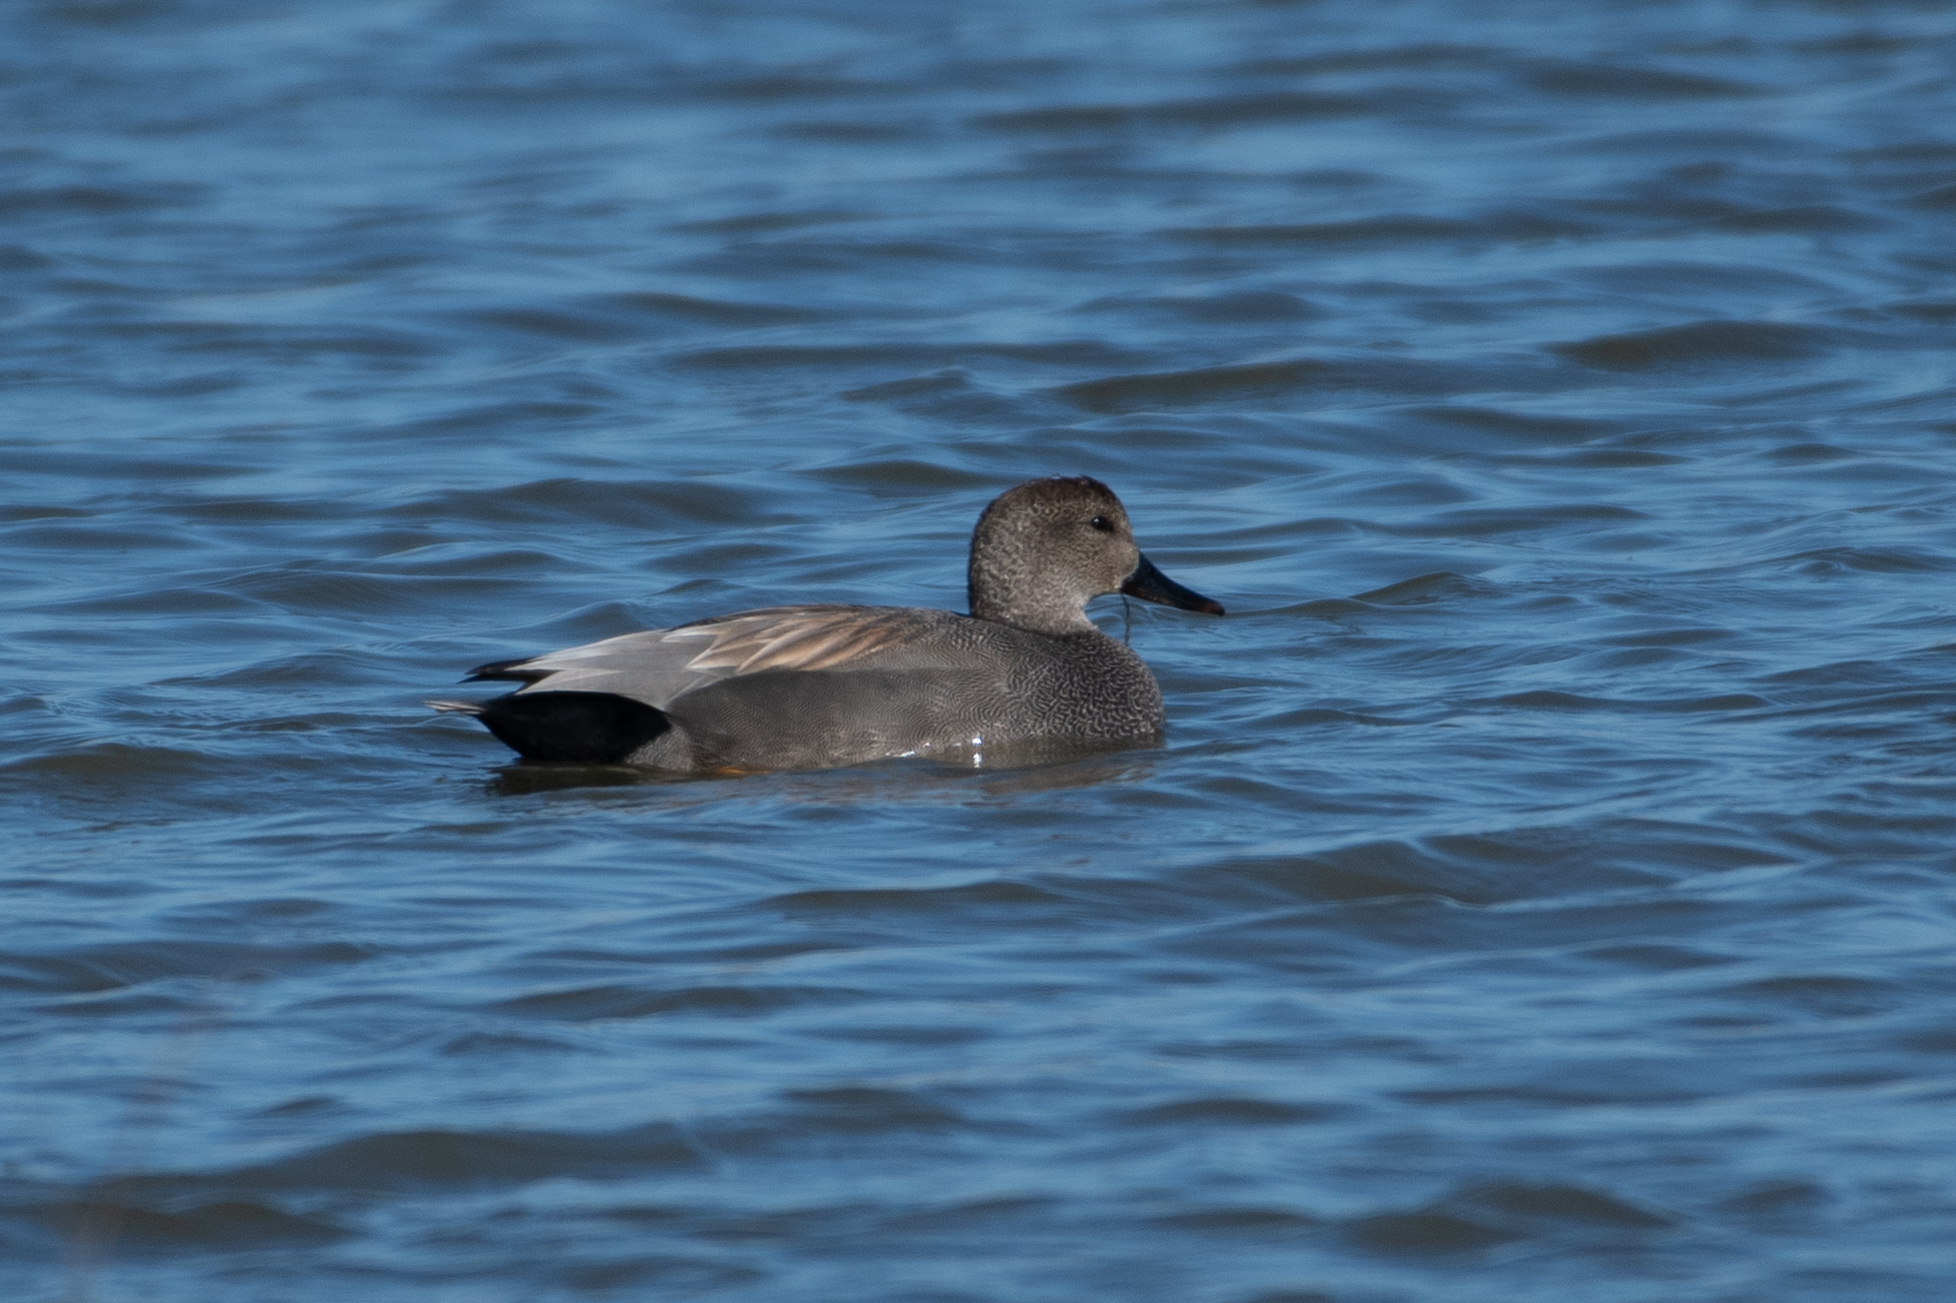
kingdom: Animalia
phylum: Chordata
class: Aves
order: Anseriformes
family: Anatidae
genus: Mareca
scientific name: Mareca strepera
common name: Gadwall
